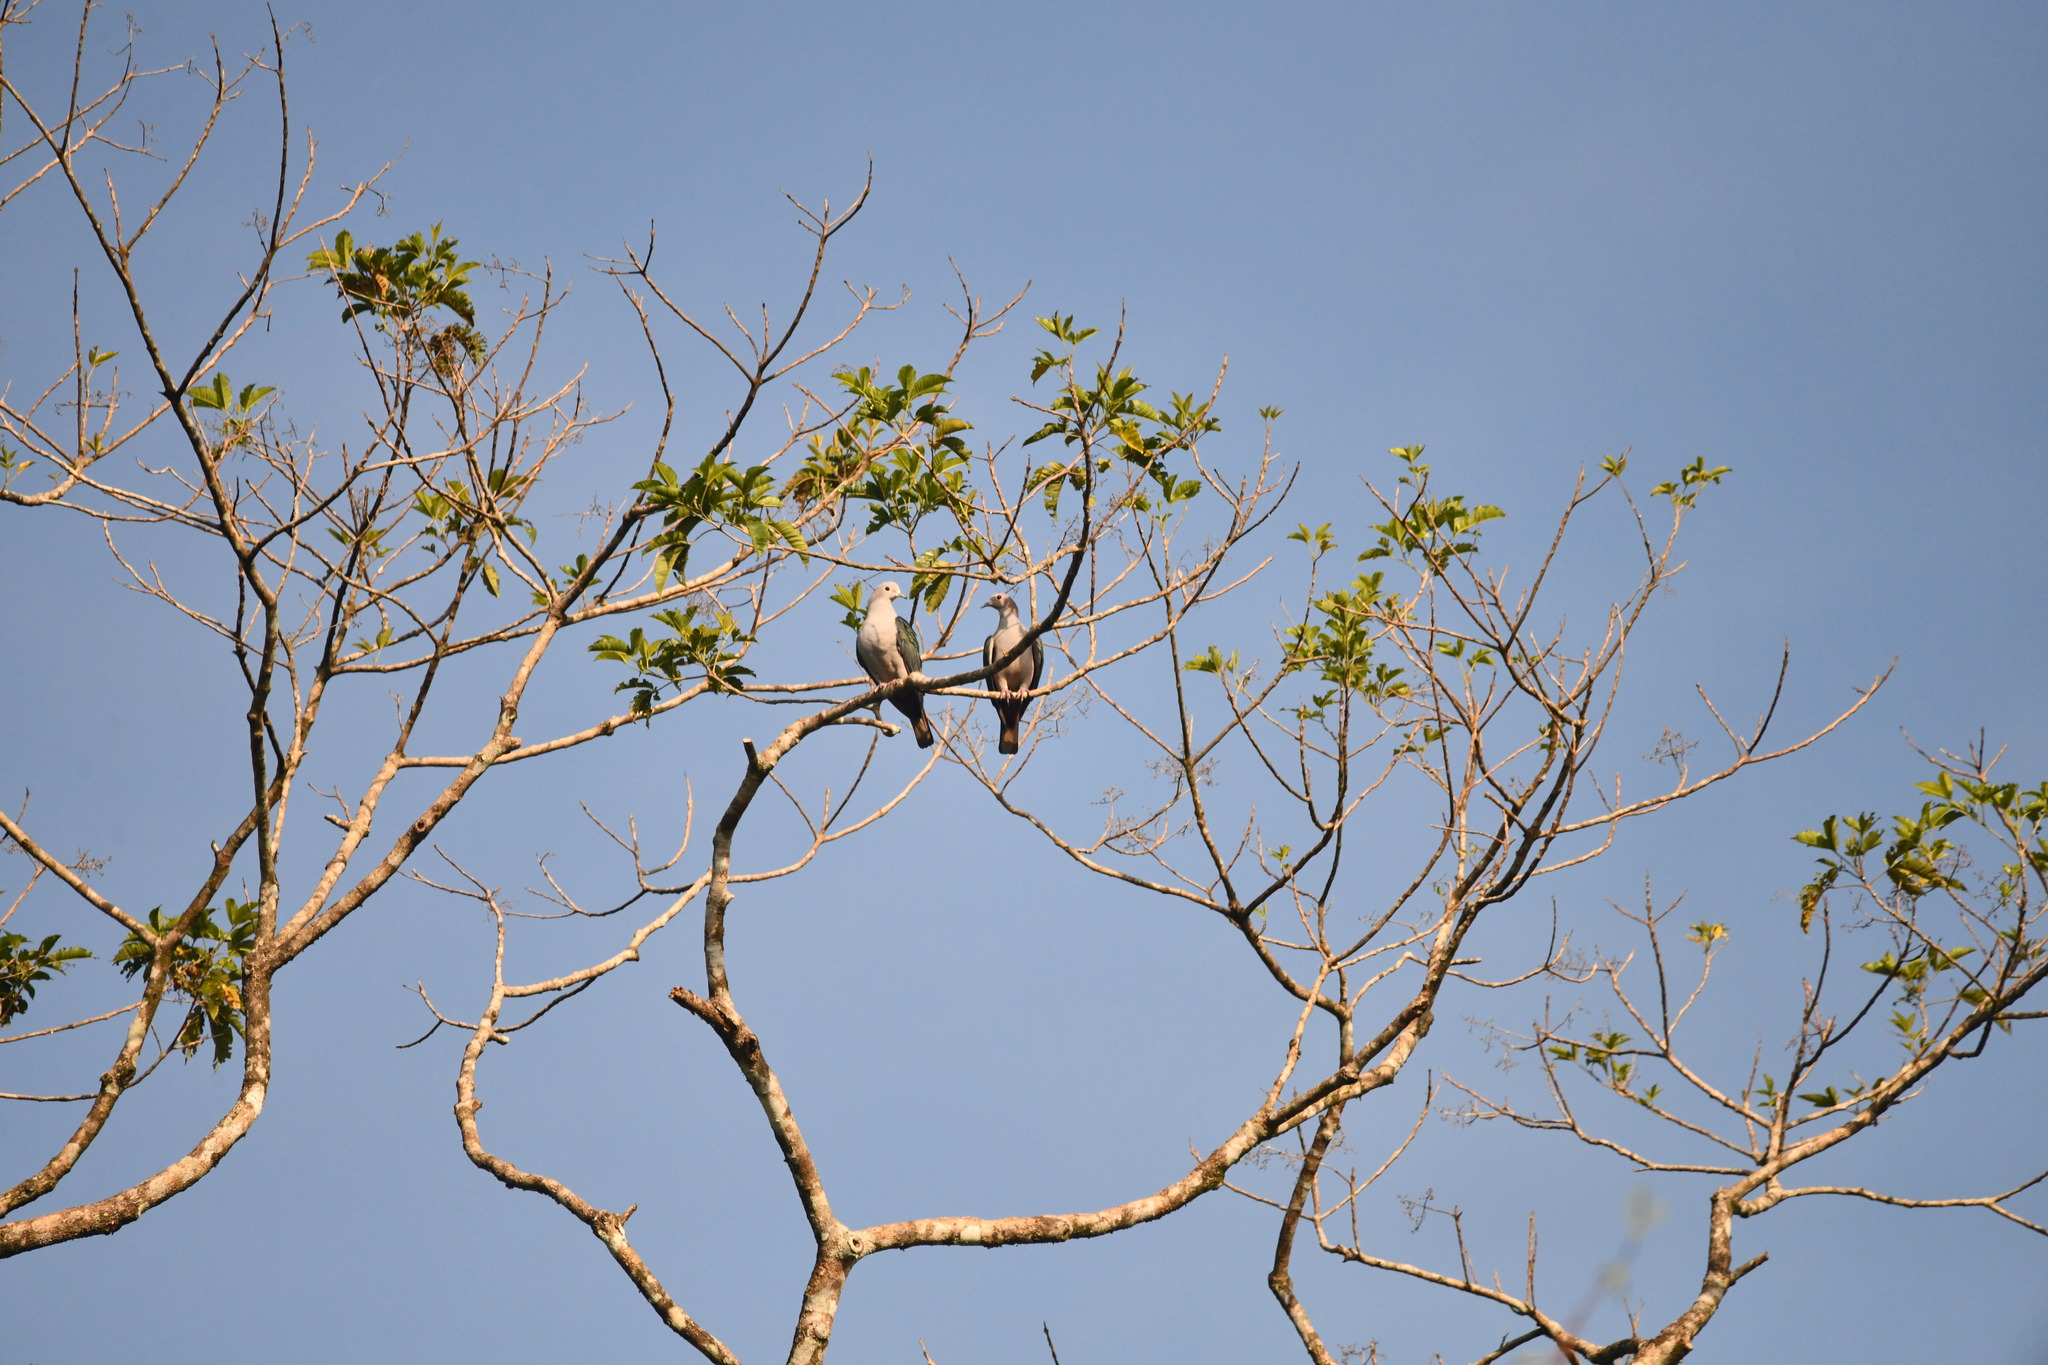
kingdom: Animalia
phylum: Chordata
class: Aves
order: Columbiformes
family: Columbidae
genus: Ducula
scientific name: Ducula aenea
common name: Green imperial pigeon
